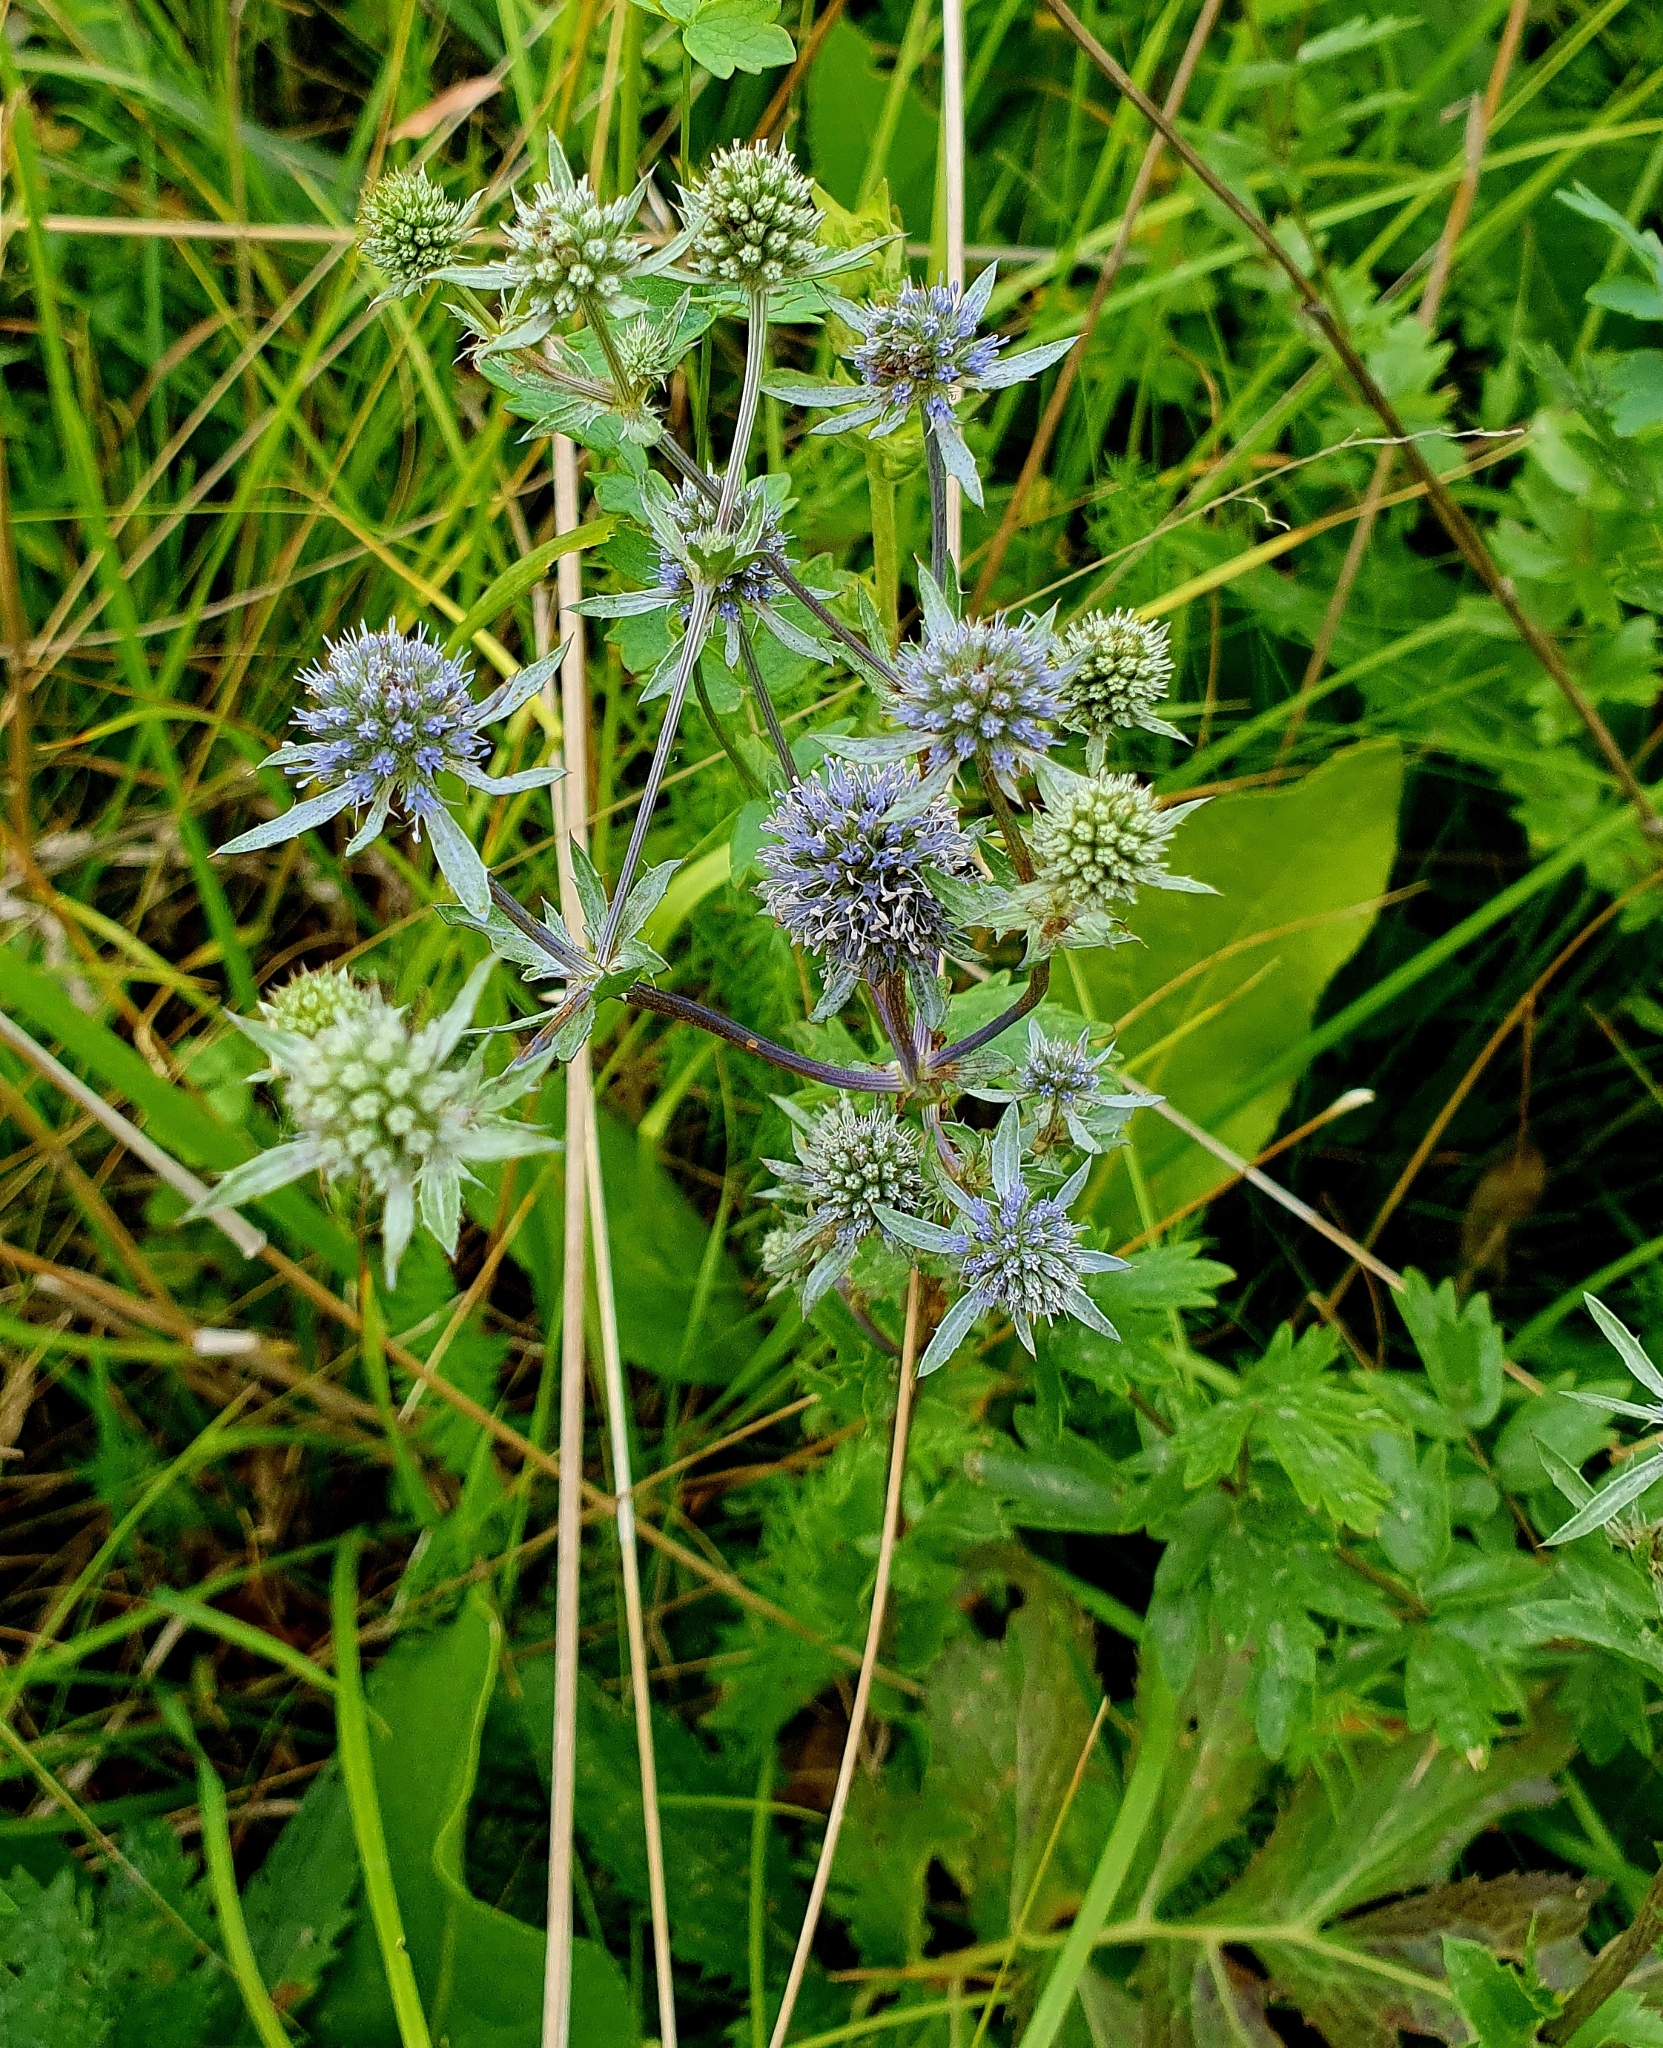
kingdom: Plantae
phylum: Tracheophyta
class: Magnoliopsida
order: Apiales
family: Apiaceae
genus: Eryngium
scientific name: Eryngium planum
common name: Blue eryngo
